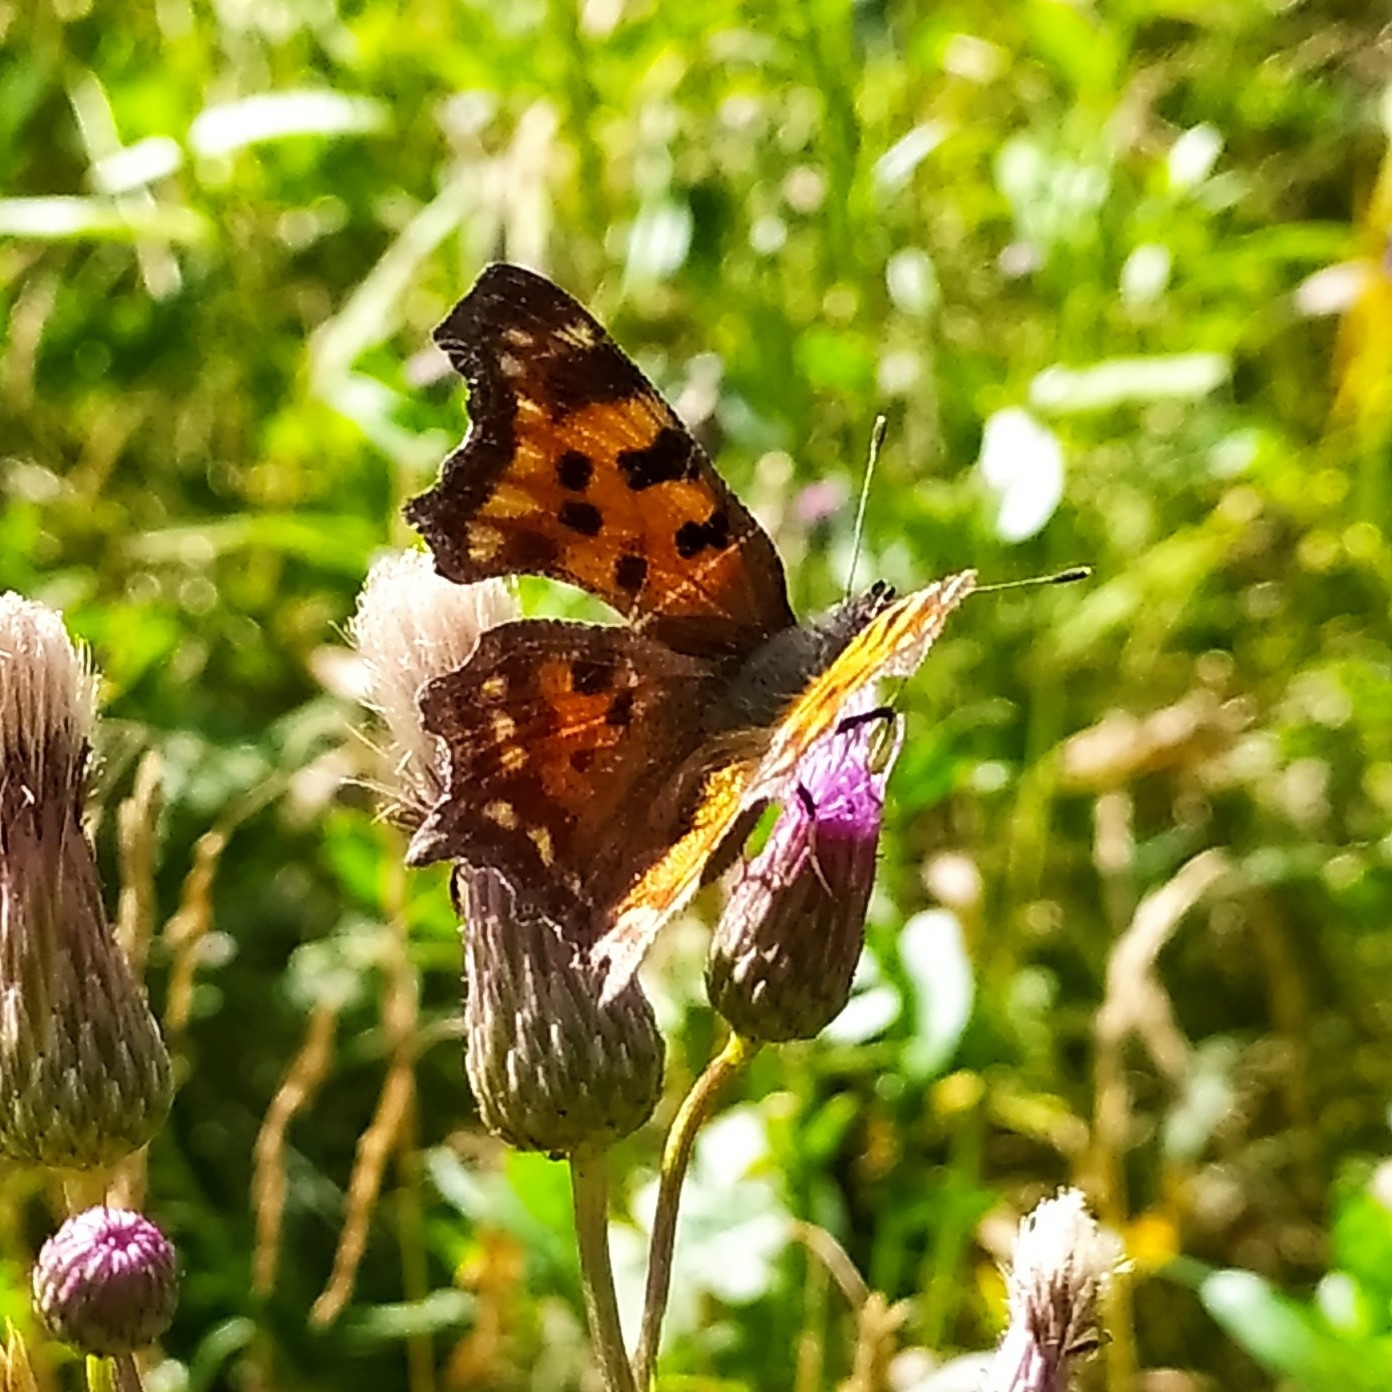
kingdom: Animalia
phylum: Arthropoda
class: Insecta
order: Lepidoptera
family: Nymphalidae
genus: Polygonia
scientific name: Polygonia c-album
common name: Comma
